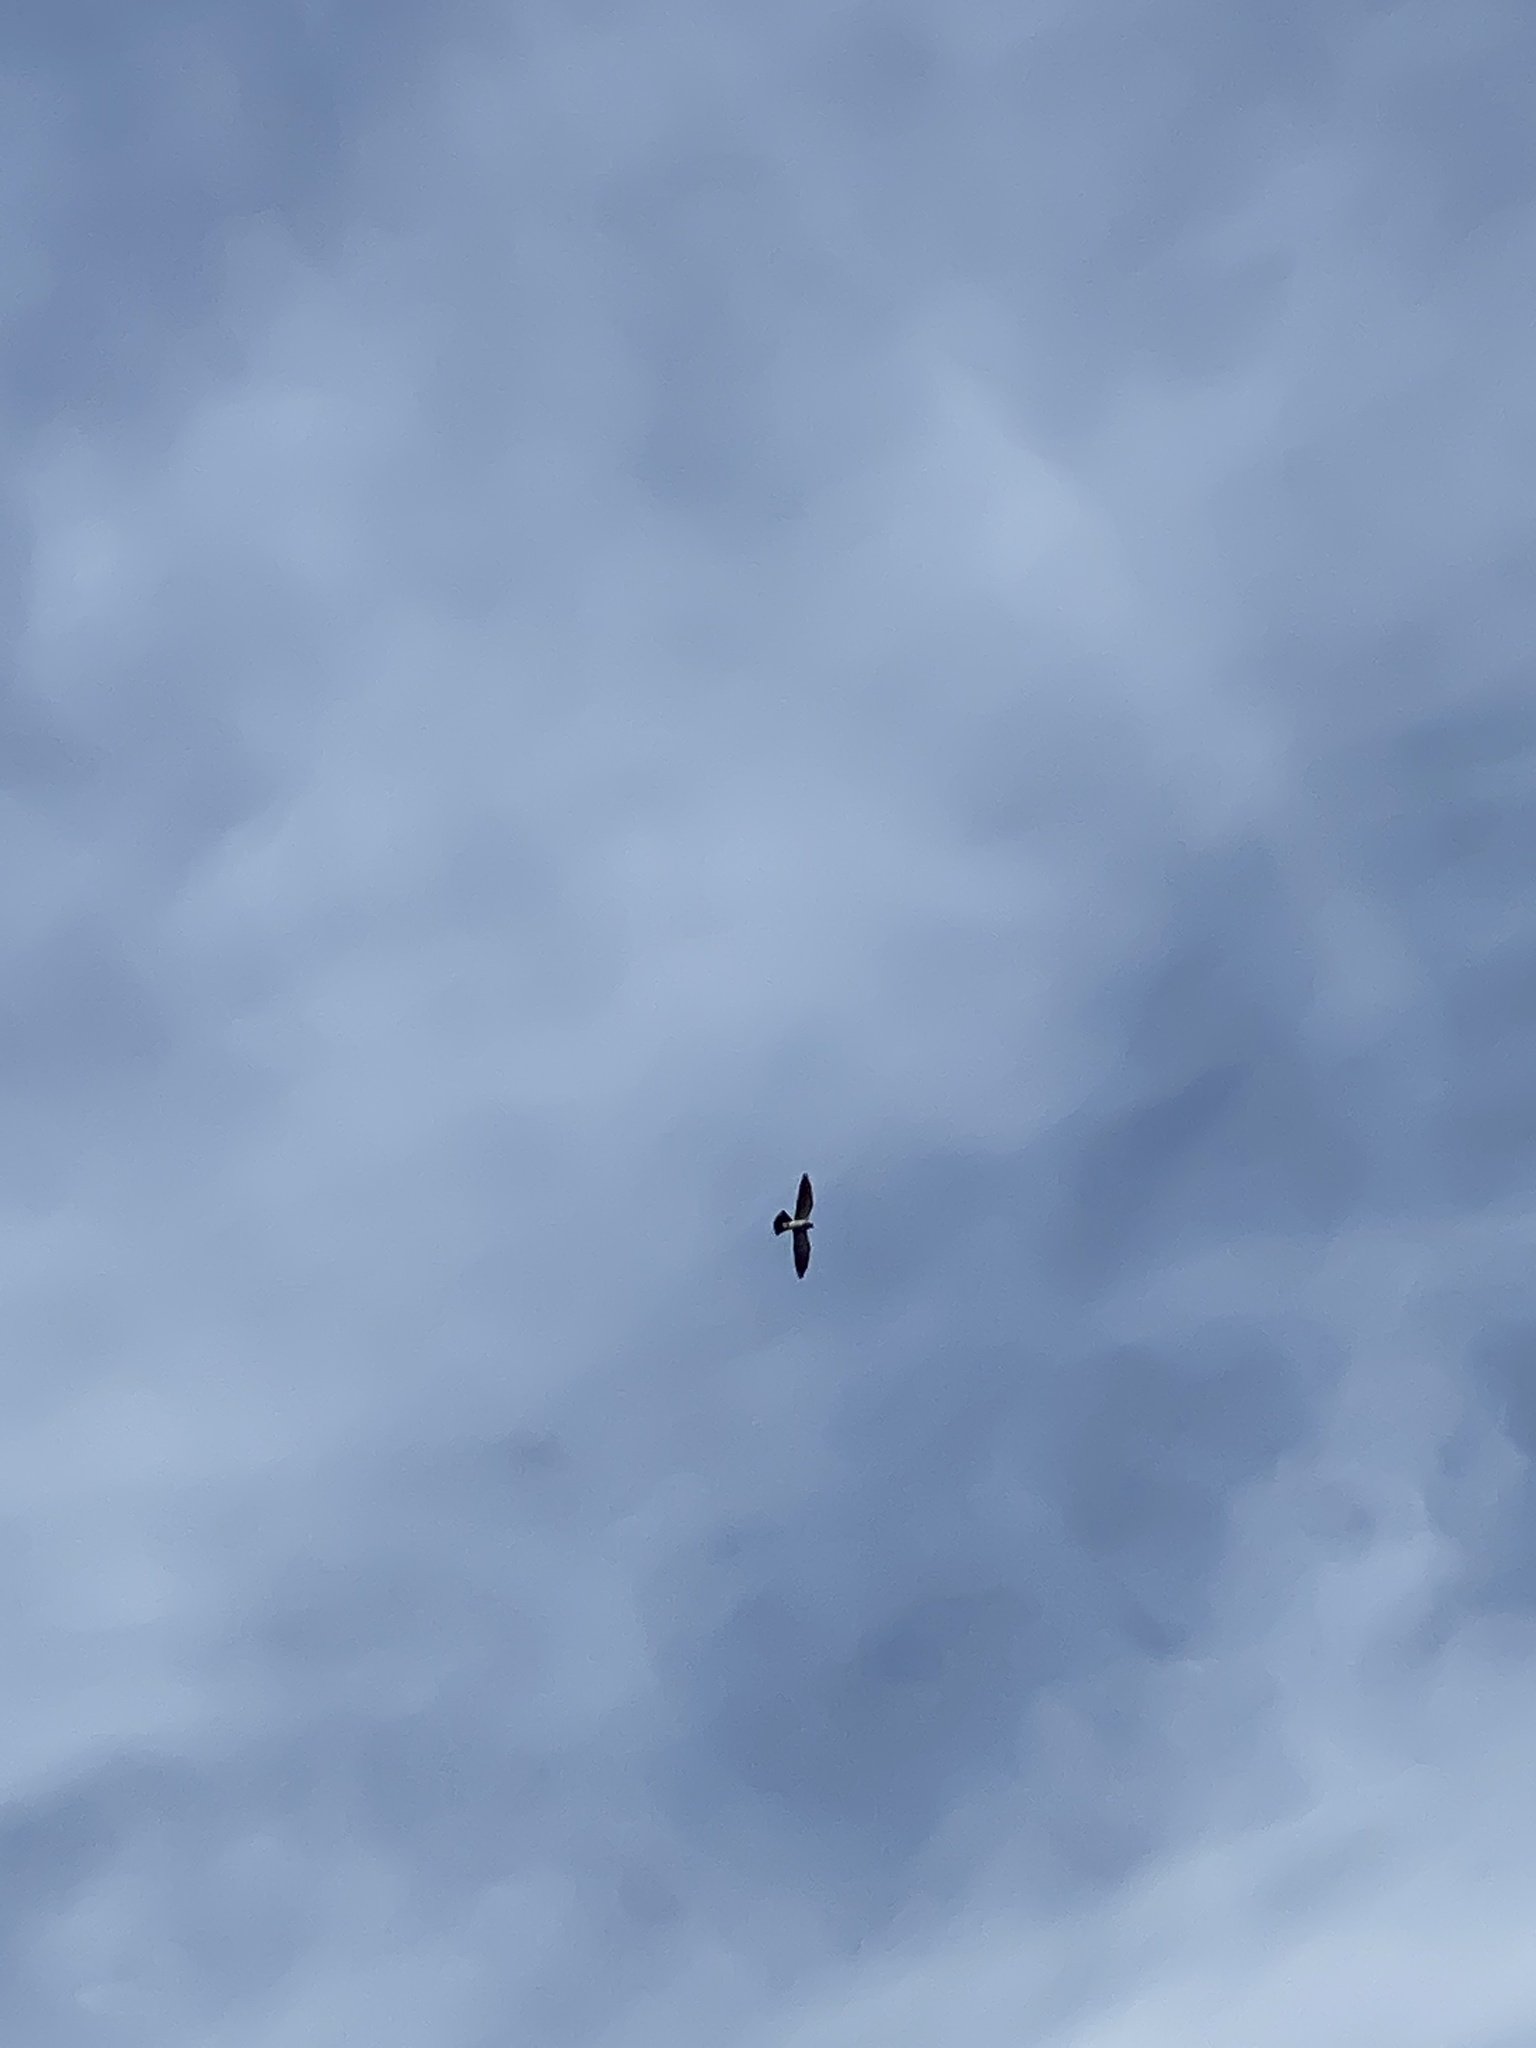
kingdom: Animalia
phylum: Chordata
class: Aves
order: Accipitriformes
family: Accipitridae
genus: Ictinia
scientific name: Ictinia mississippiensis
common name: Mississippi kite
